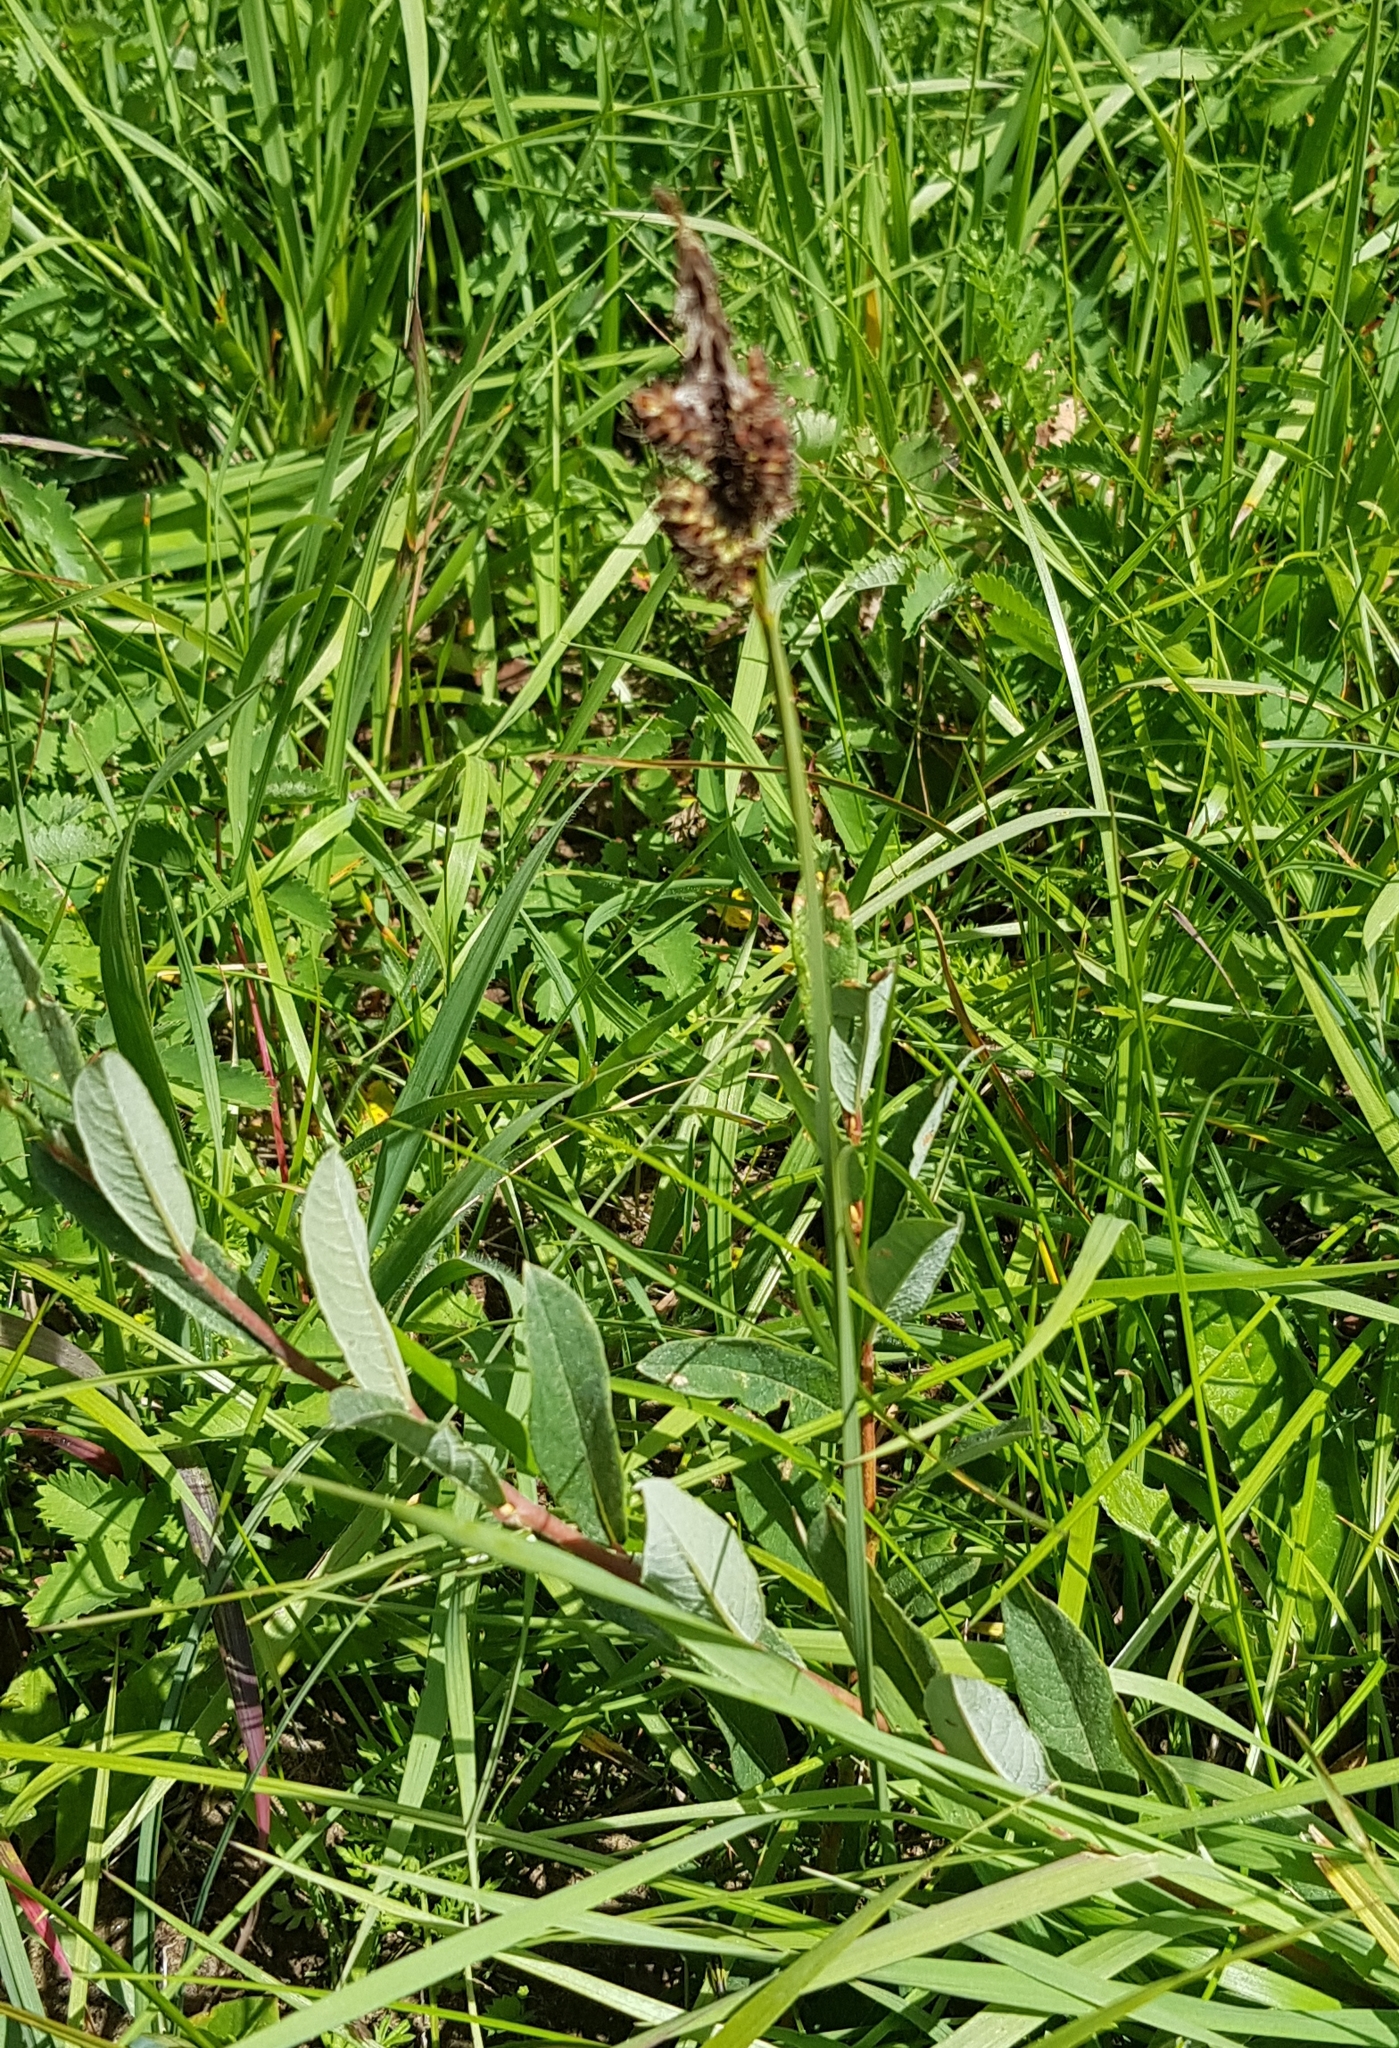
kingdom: Plantae
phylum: Tracheophyta
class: Liliopsida
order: Poales
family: Cyperaceae
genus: Carex
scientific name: Carex disticha
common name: Brown sedge
